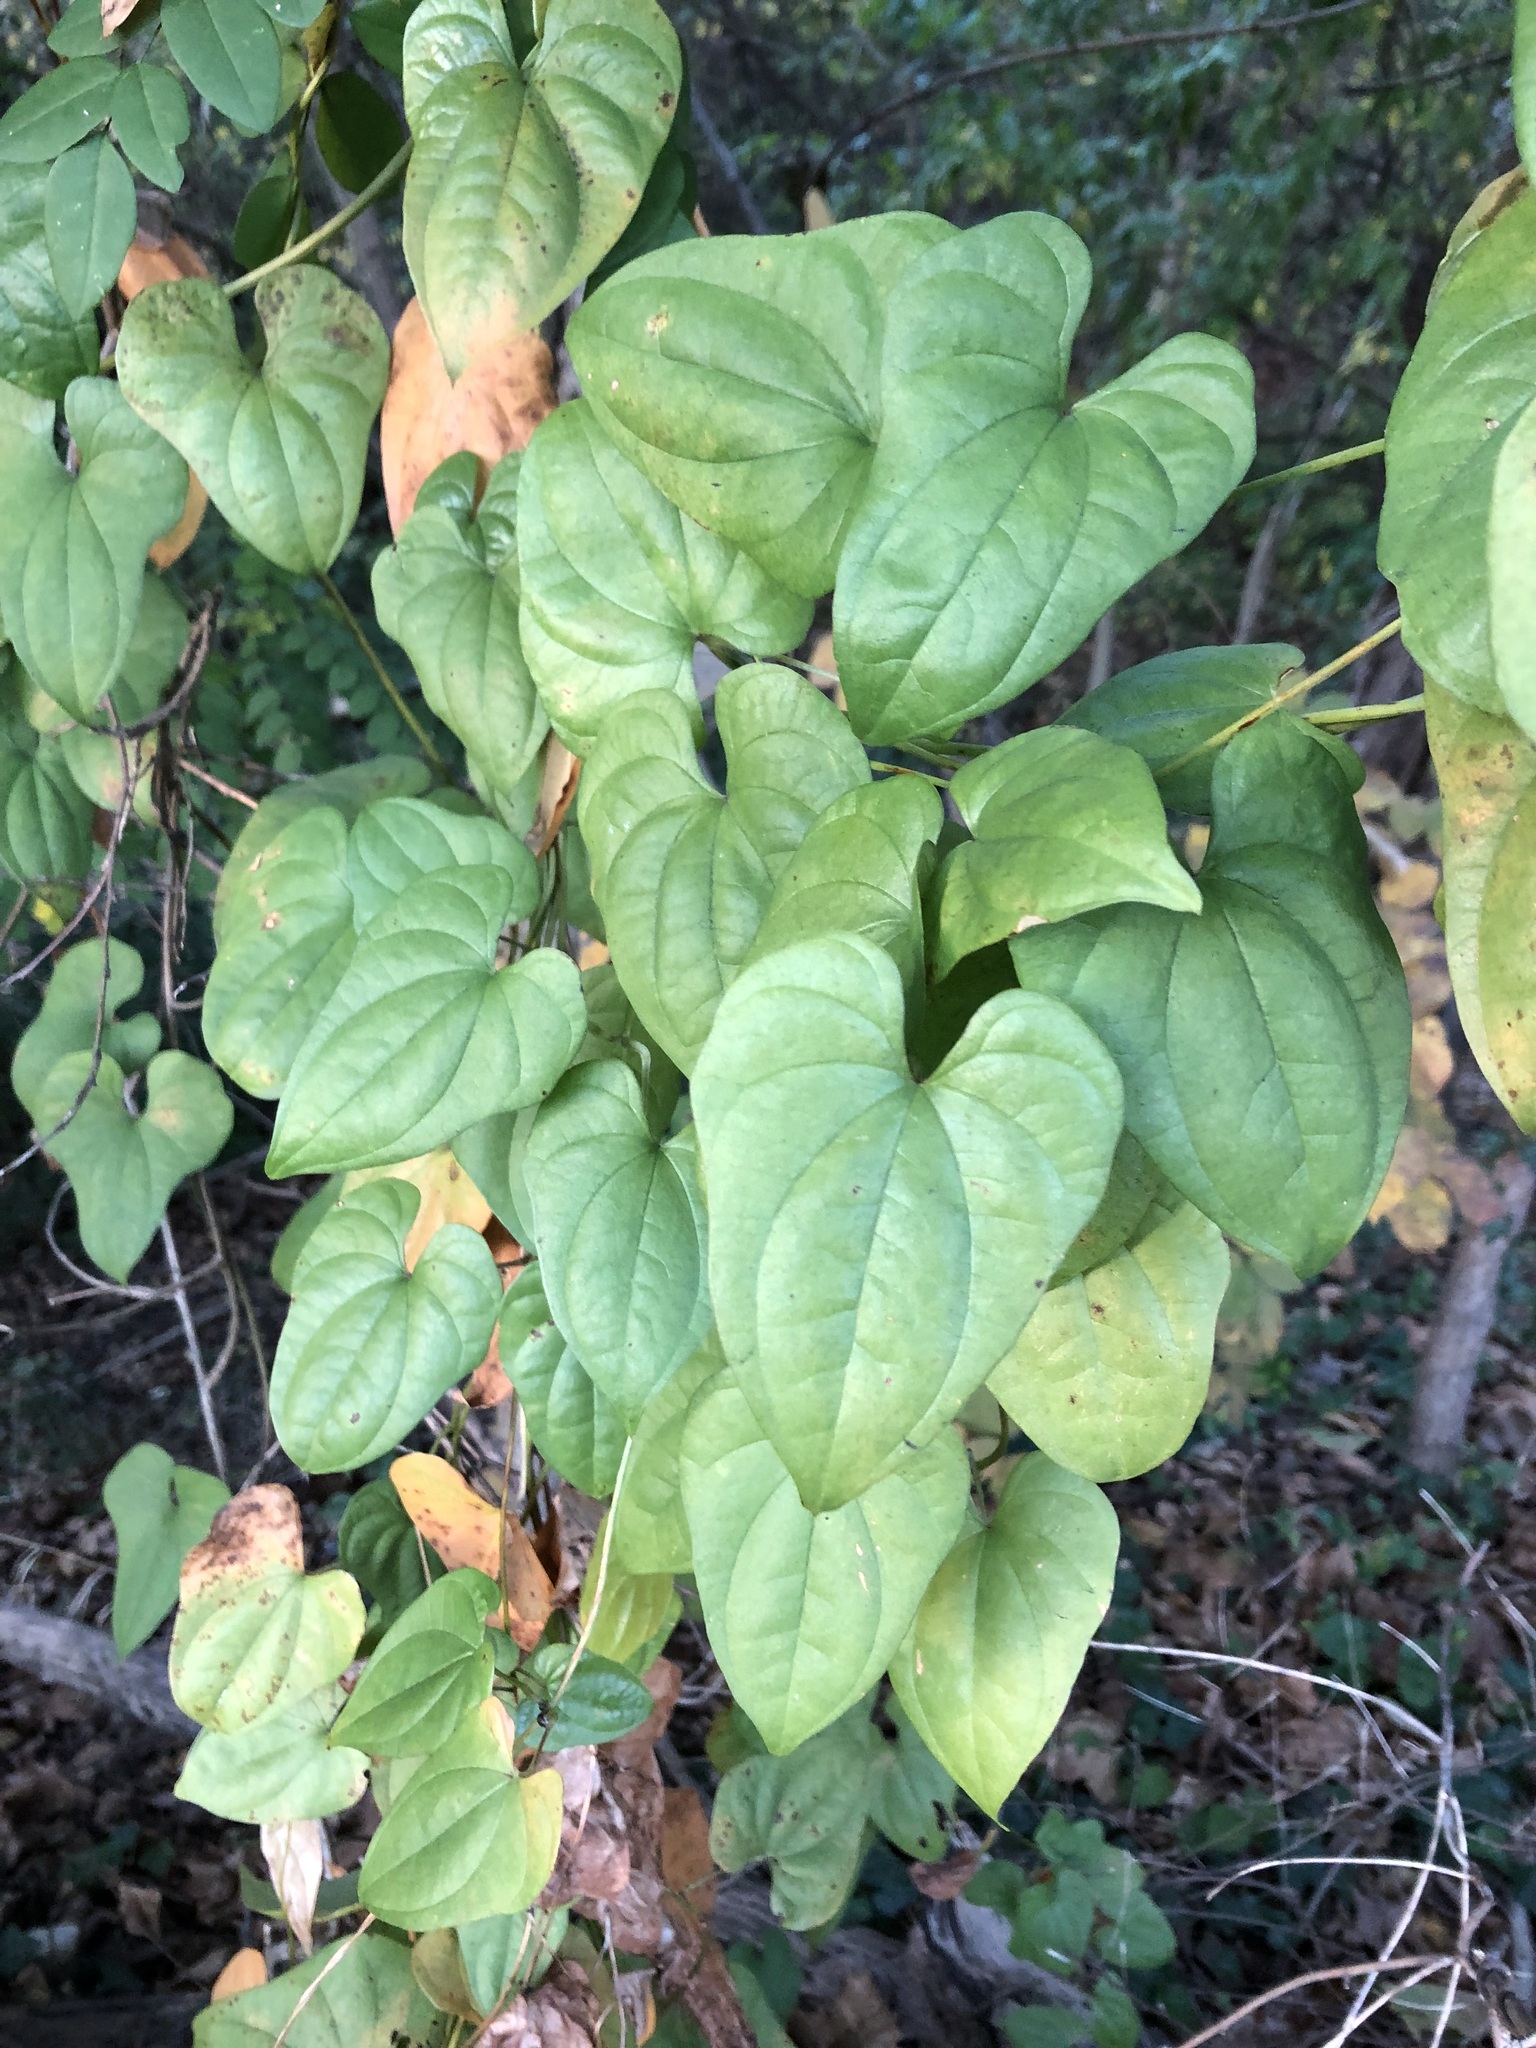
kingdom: Plantae
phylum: Tracheophyta
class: Liliopsida
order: Dioscoreales
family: Dioscoreaceae
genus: Dioscorea
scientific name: Dioscorea polystachya
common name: Chinese yam
